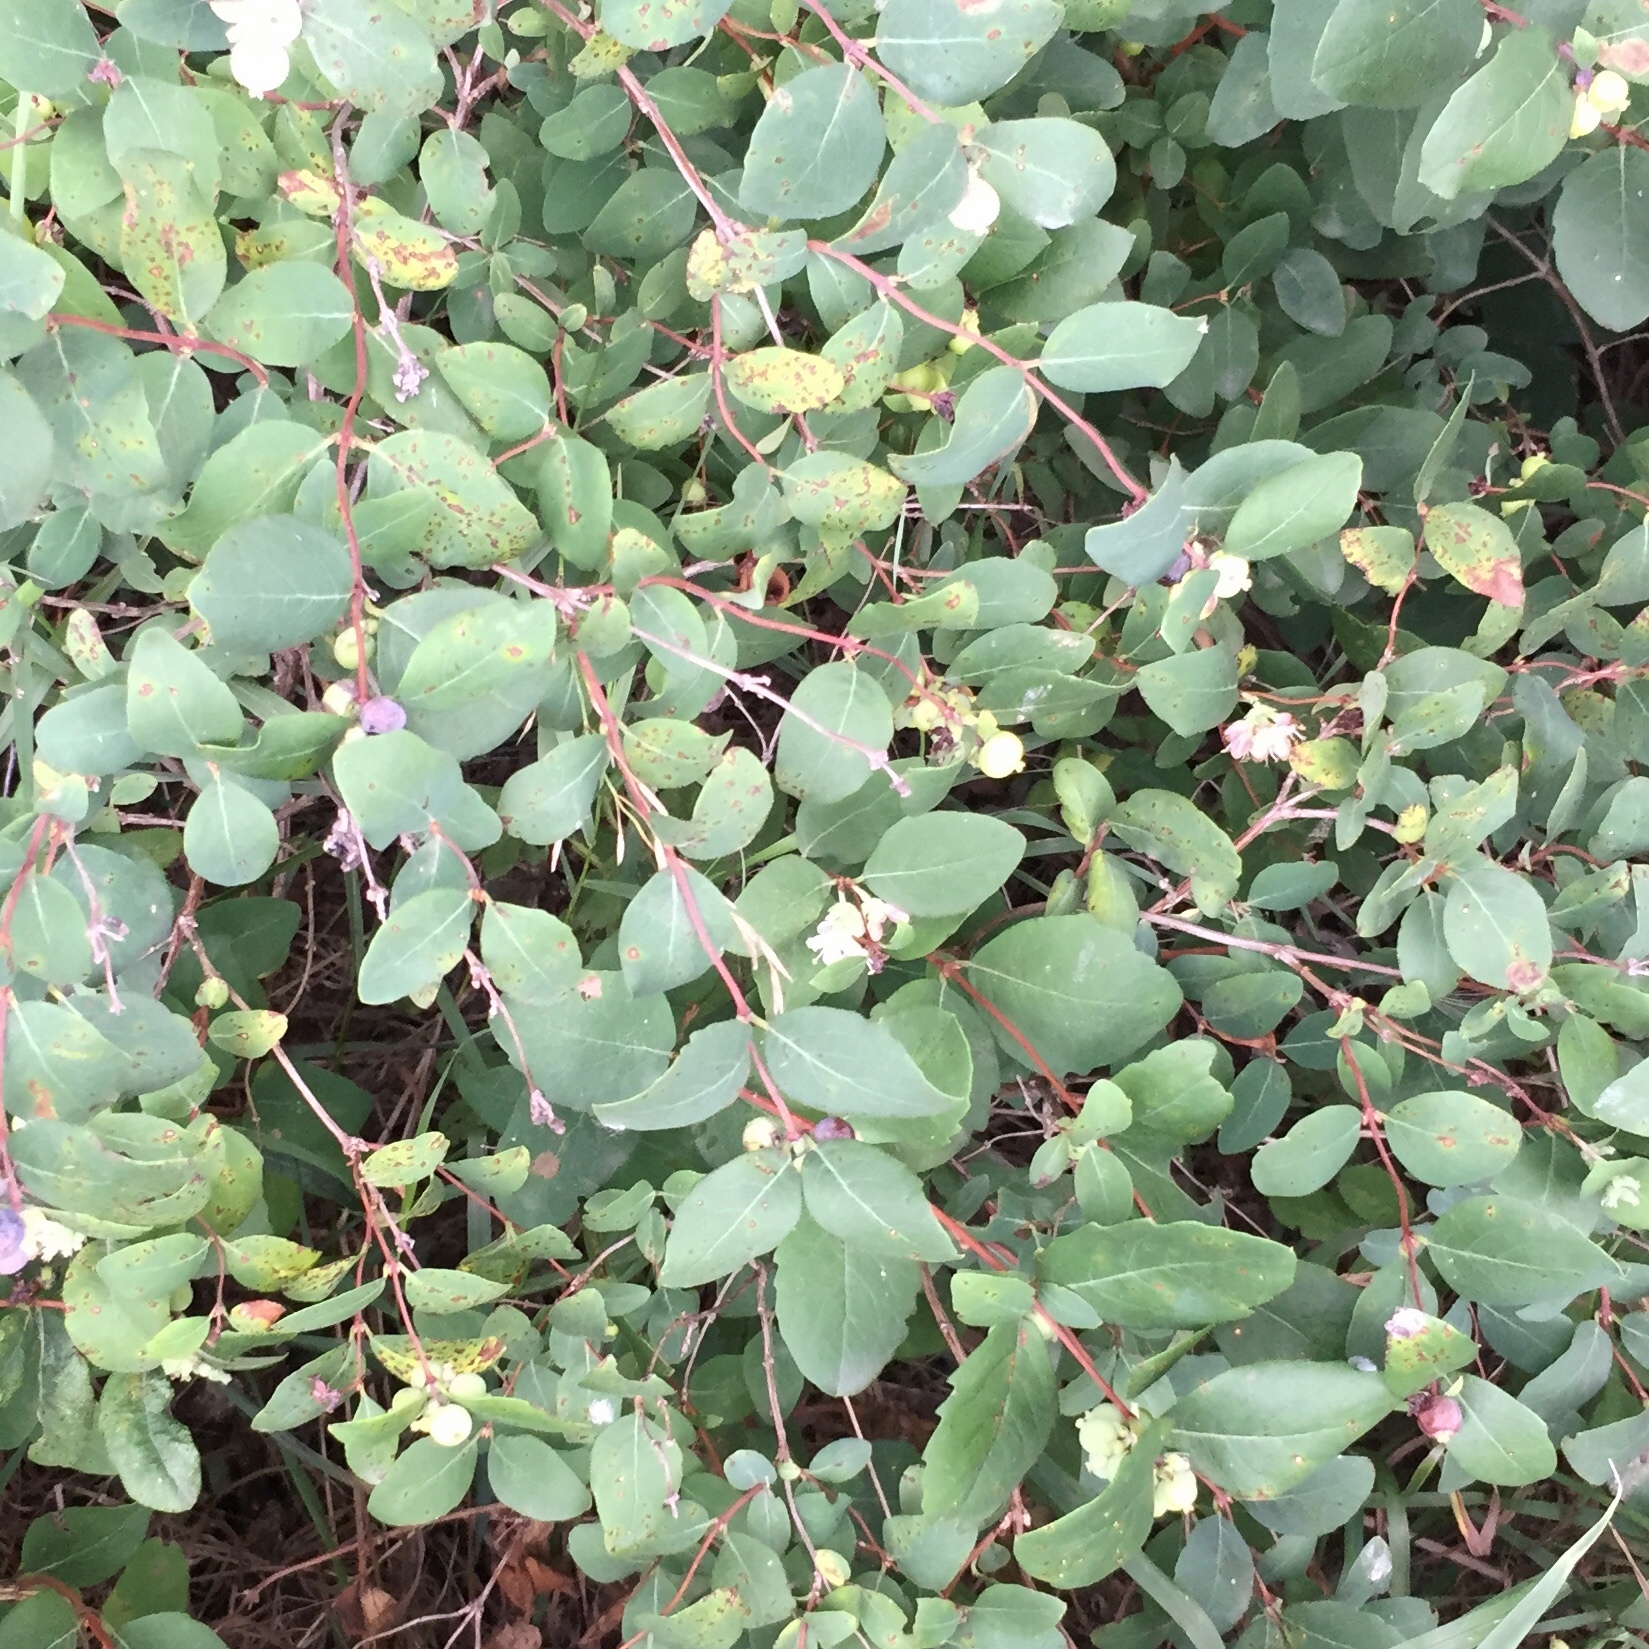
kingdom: Plantae
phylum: Tracheophyta
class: Magnoliopsida
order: Dipsacales
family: Caprifoliaceae
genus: Symphoricarpos
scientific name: Symphoricarpos occidentalis
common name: Wolfberry
